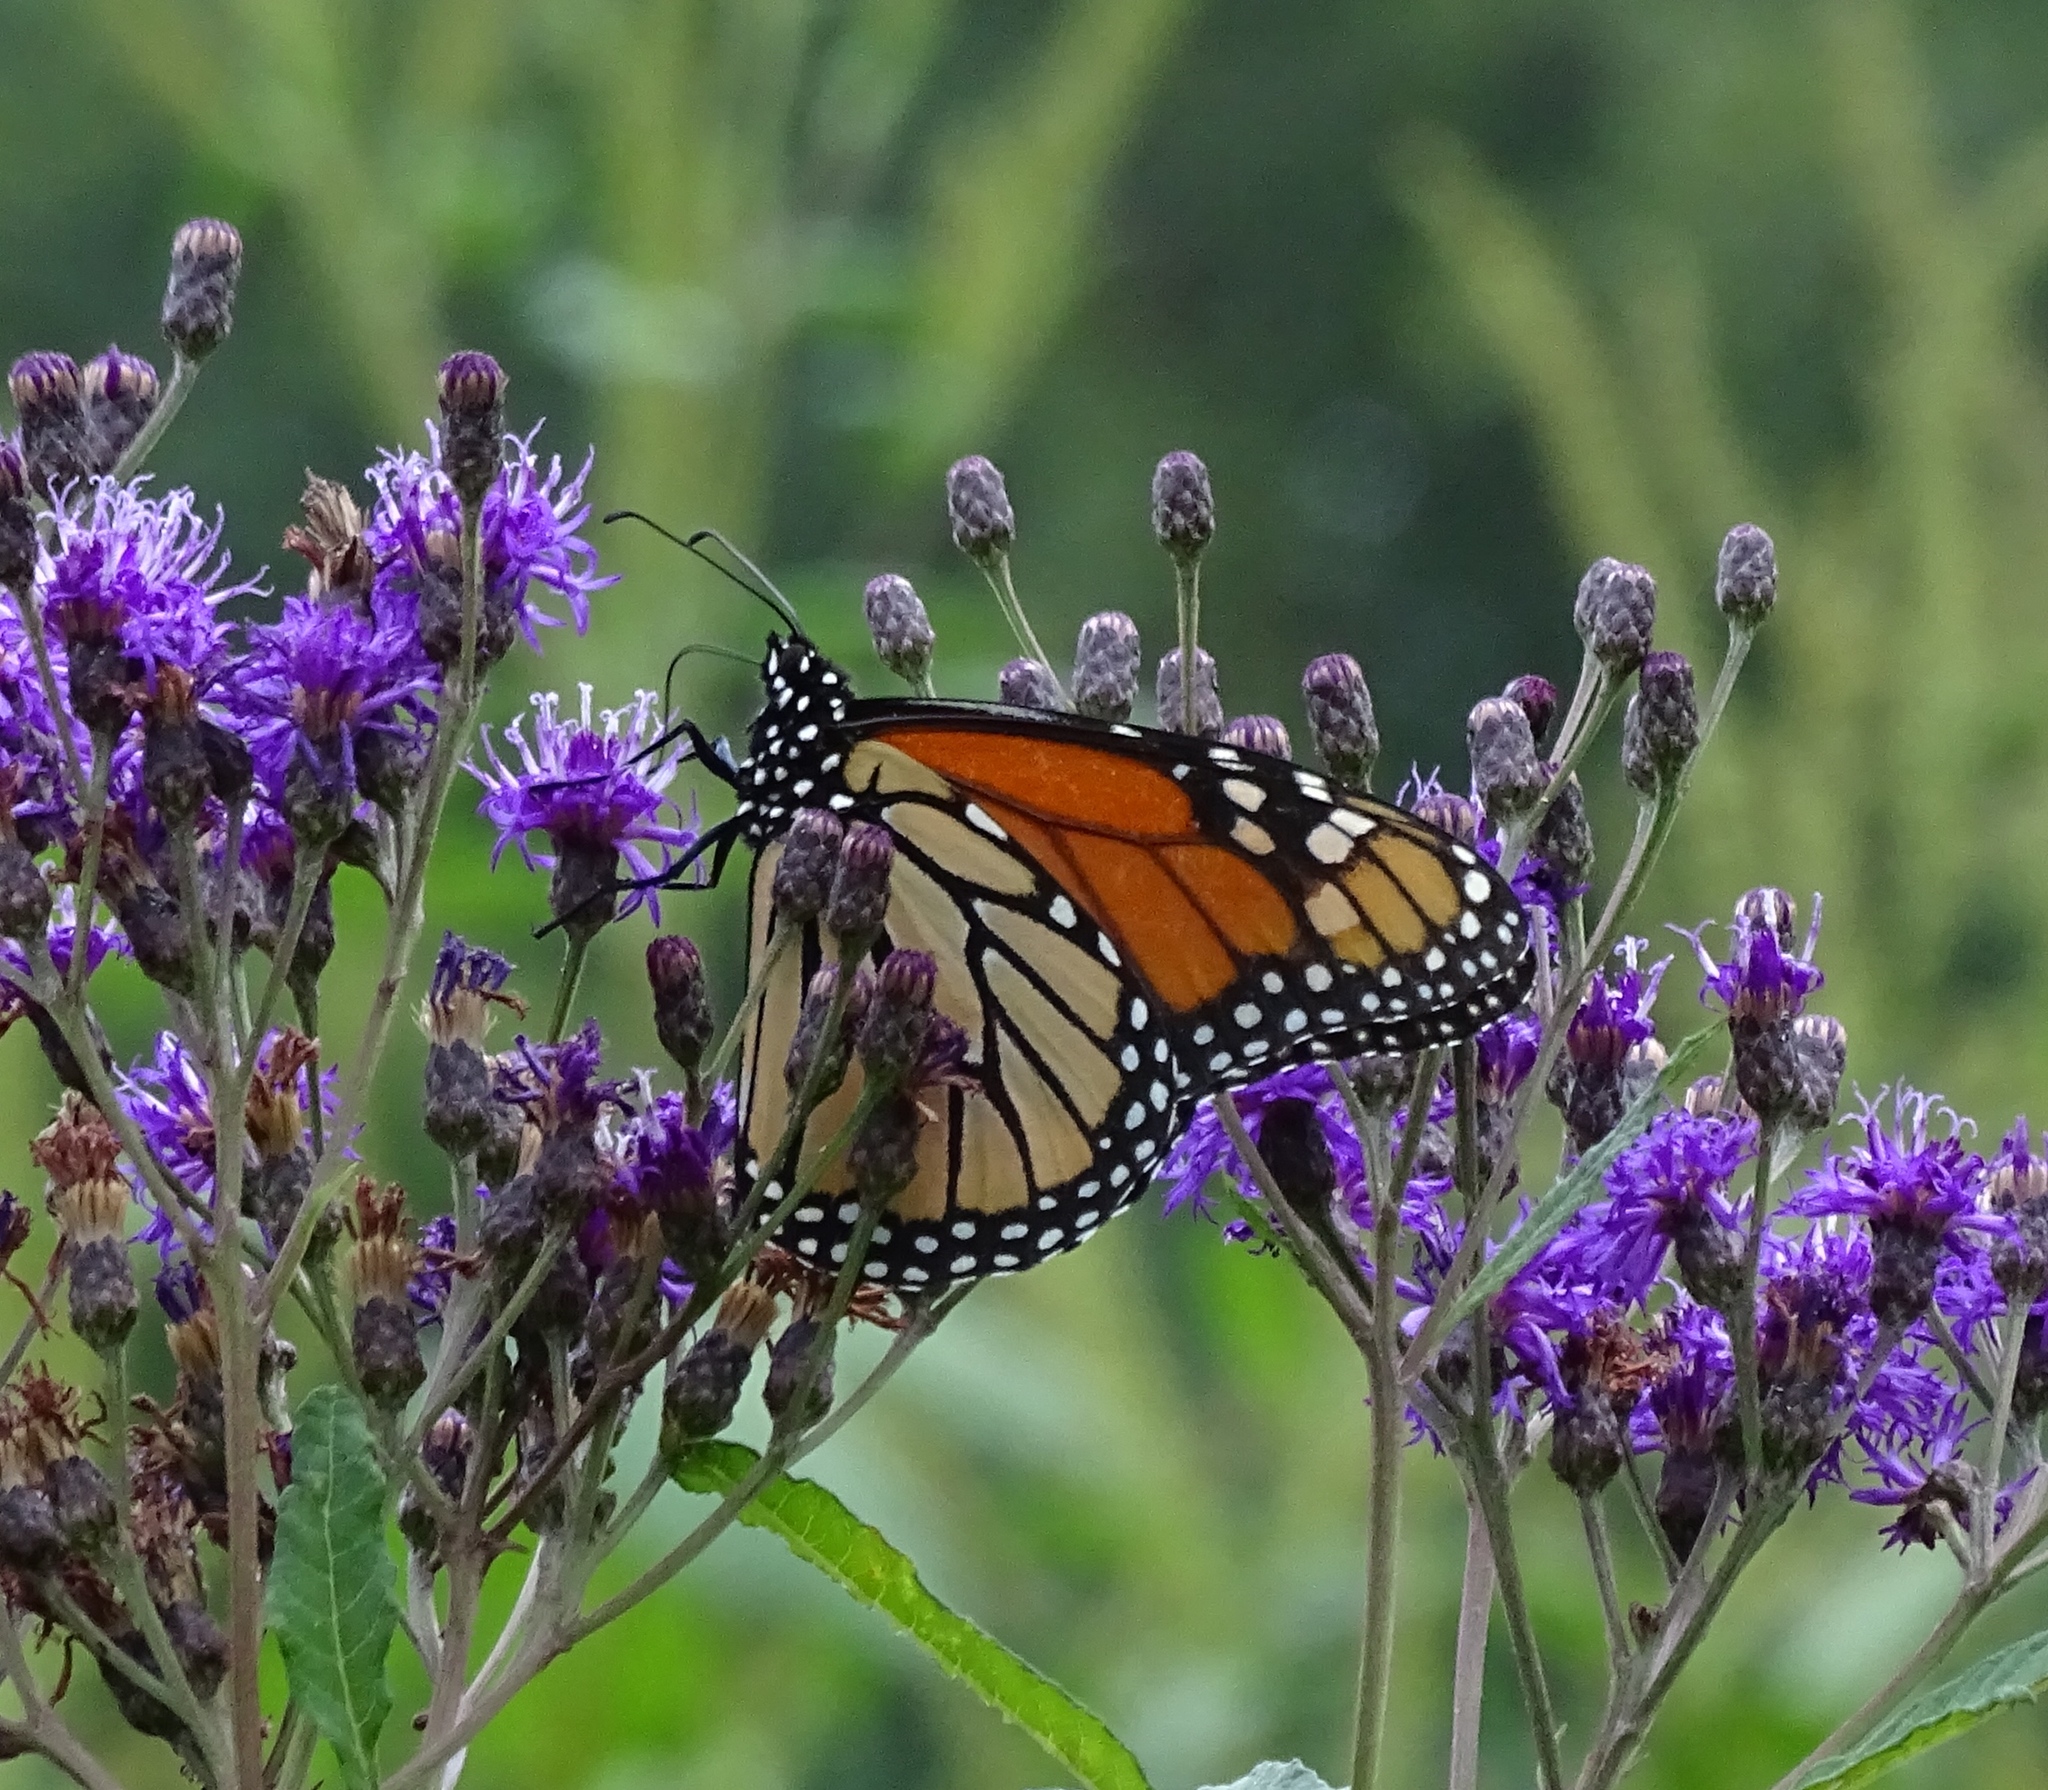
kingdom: Animalia
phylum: Arthropoda
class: Insecta
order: Lepidoptera
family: Nymphalidae
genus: Danaus
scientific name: Danaus plexippus
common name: Monarch
